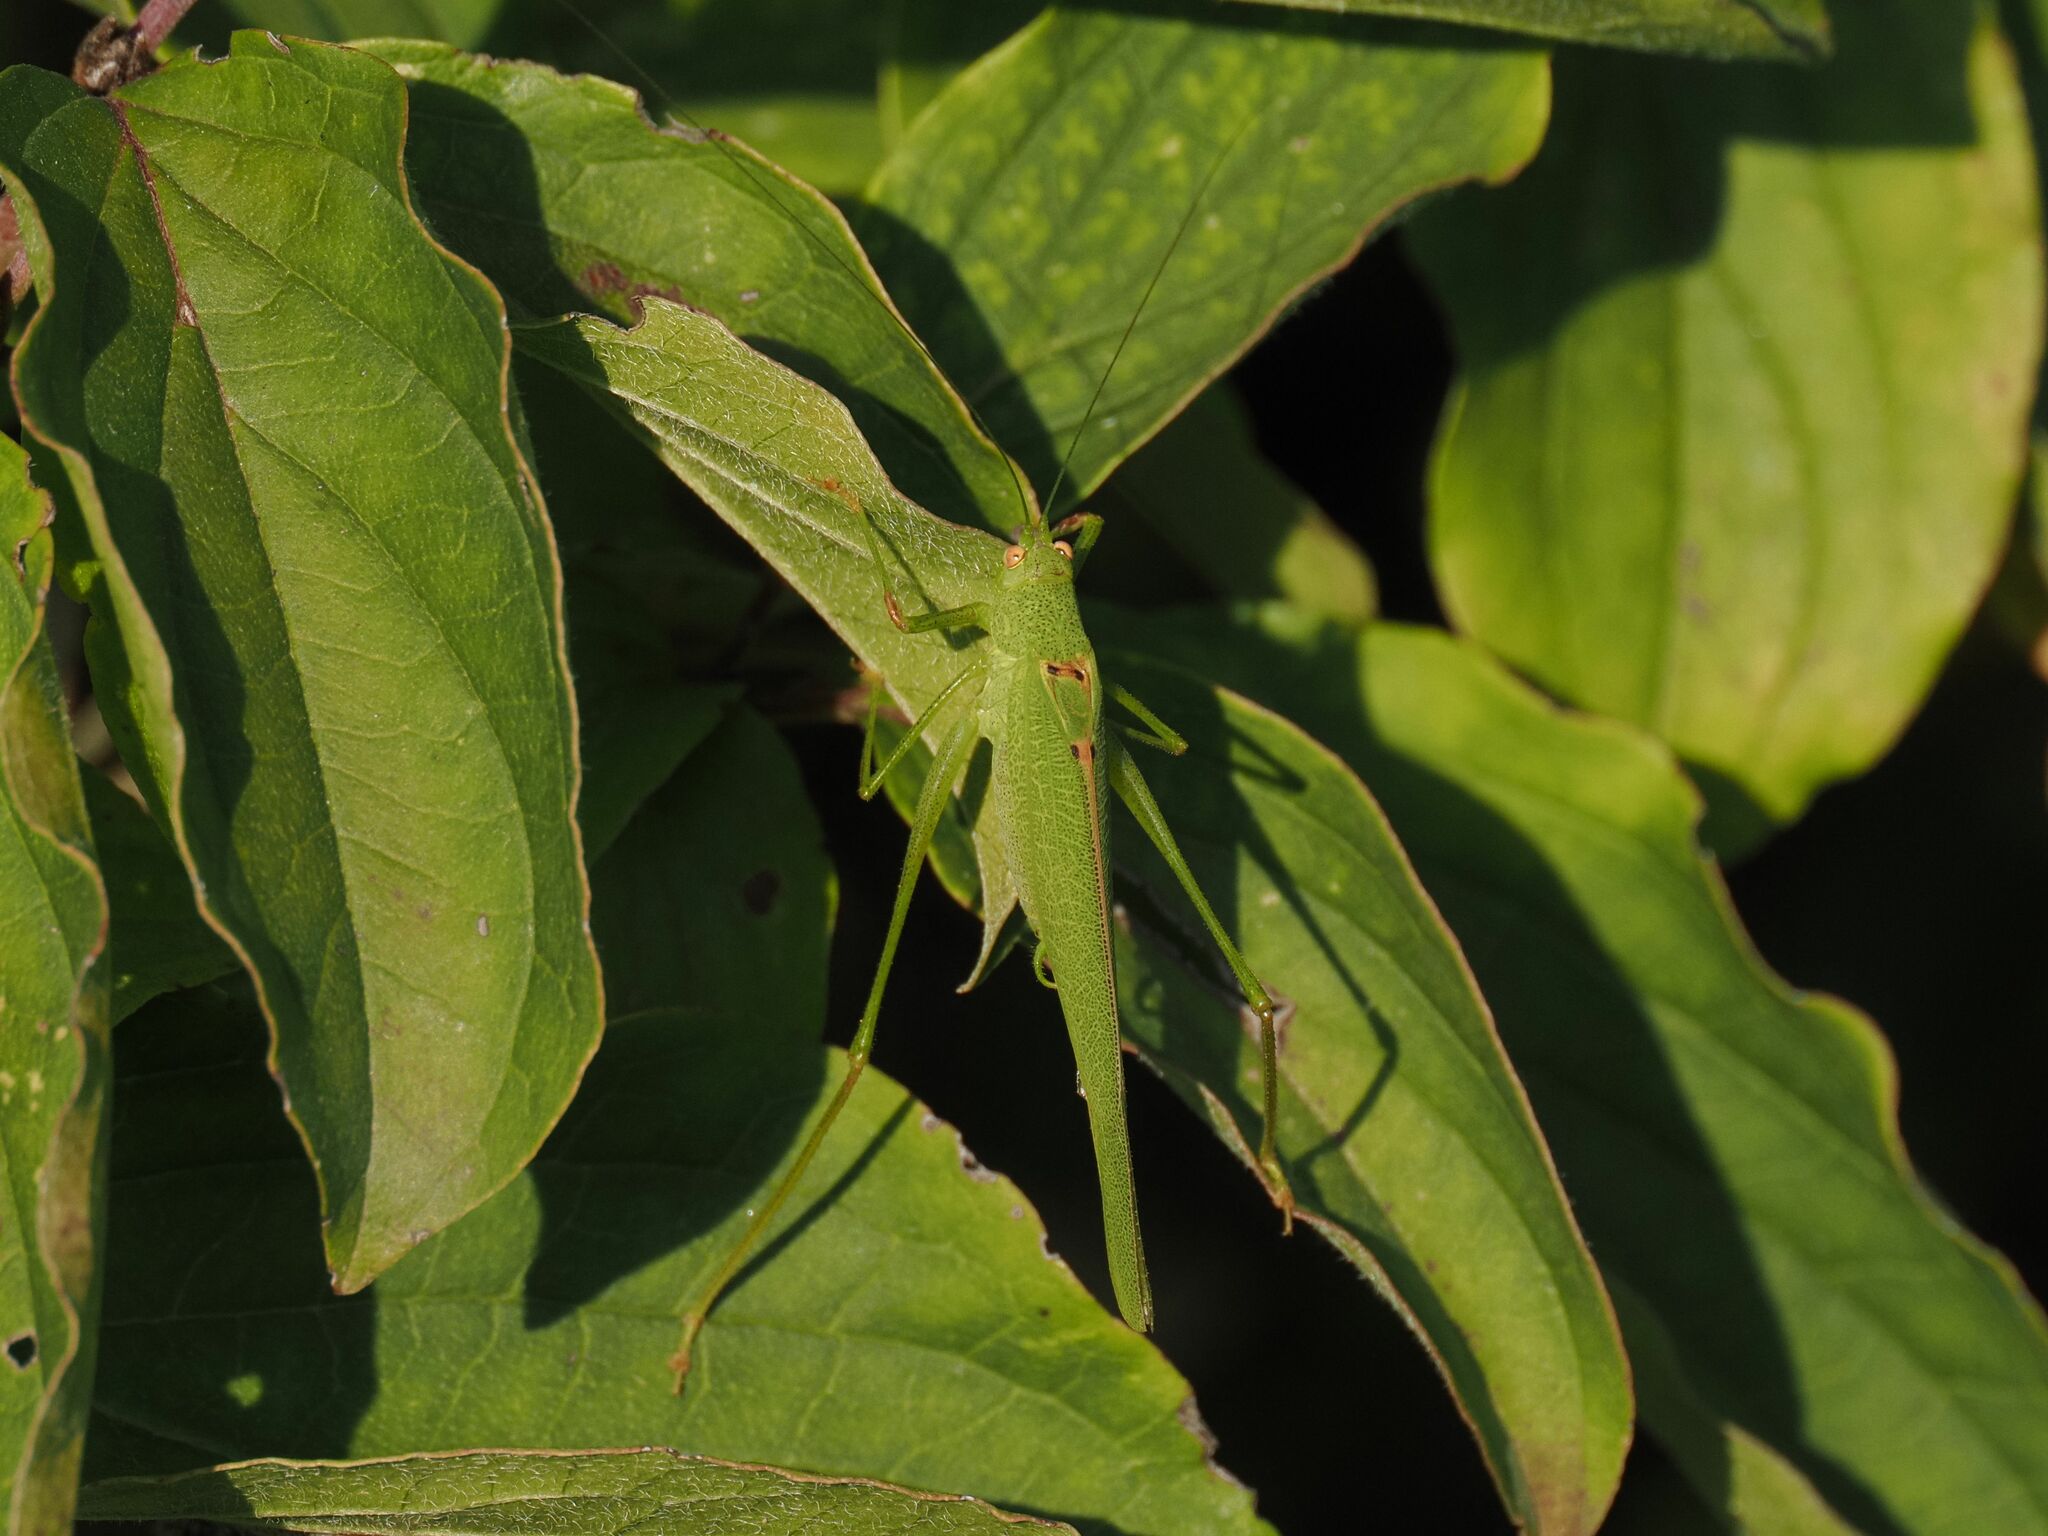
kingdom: Animalia
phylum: Arthropoda
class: Insecta
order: Orthoptera
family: Tettigoniidae
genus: Phaneroptera
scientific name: Phaneroptera nana
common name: Southern sickle bush-cricket
